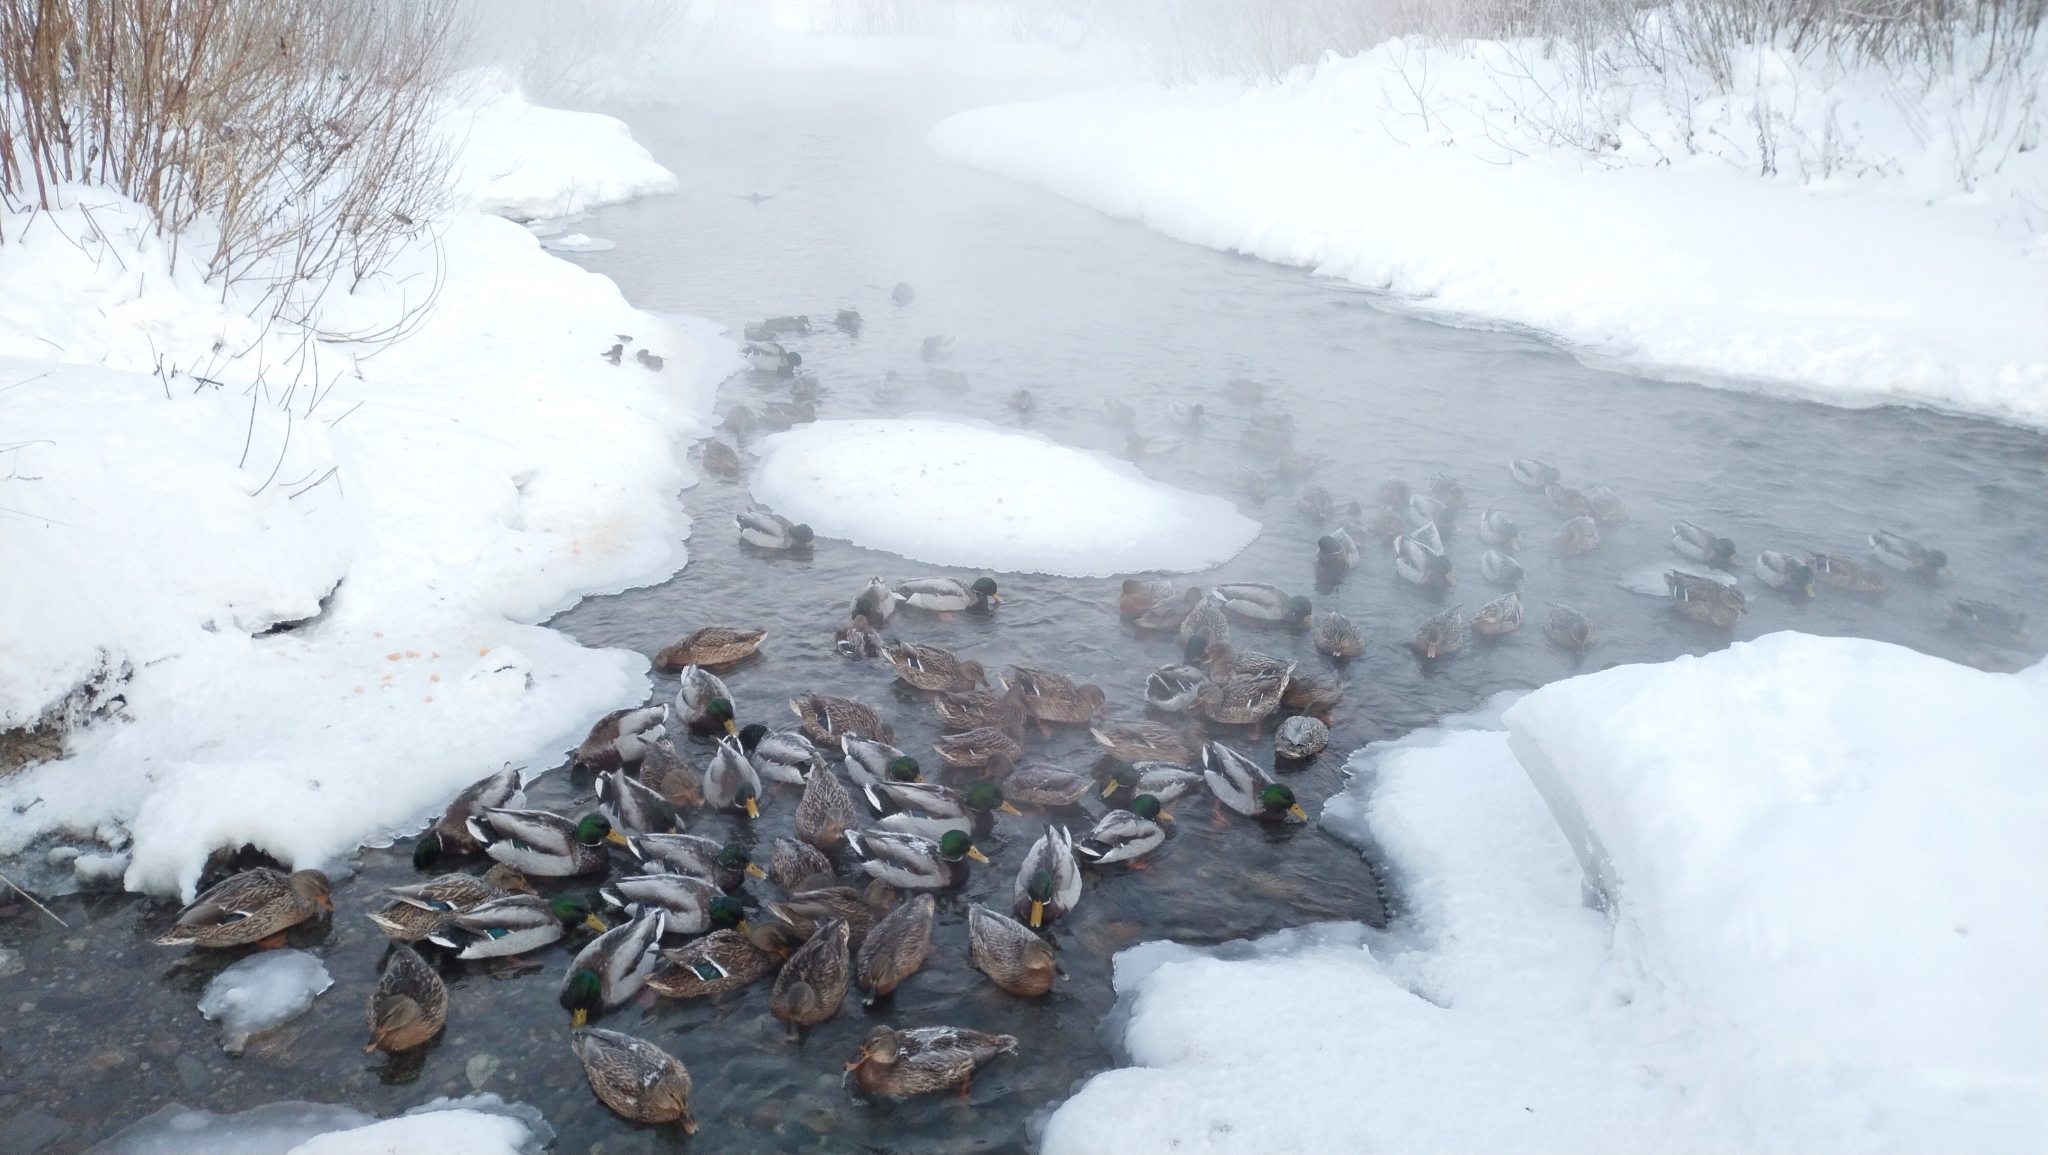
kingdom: Animalia
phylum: Chordata
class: Aves
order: Anseriformes
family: Anatidae
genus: Anas
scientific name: Anas platyrhynchos
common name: Mallard
